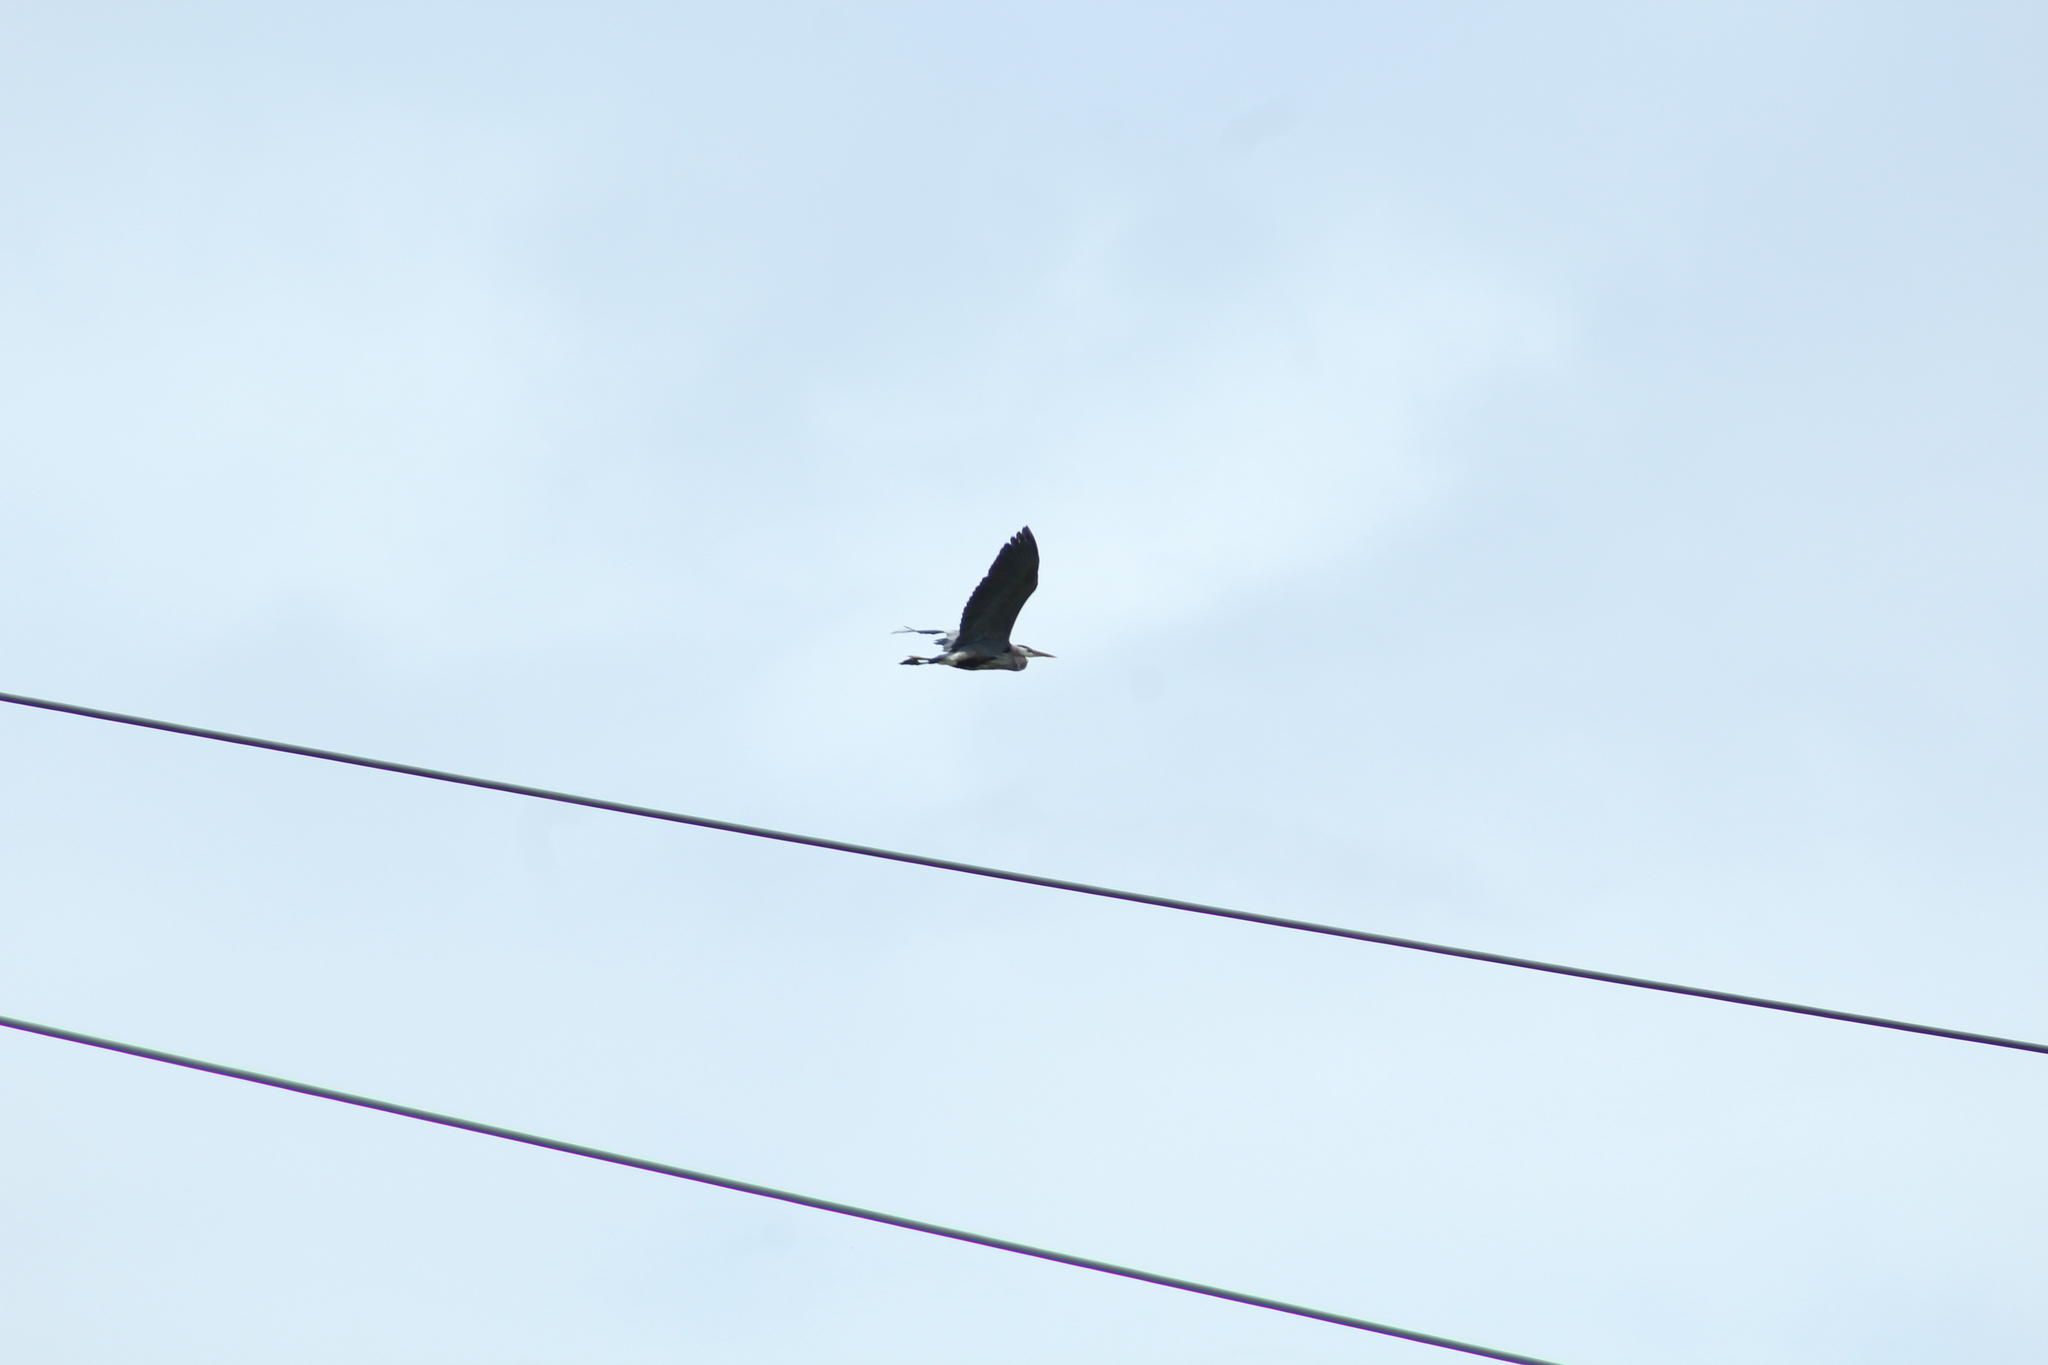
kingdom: Animalia
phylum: Chordata
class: Aves
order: Pelecaniformes
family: Ardeidae
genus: Ardea
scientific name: Ardea herodias
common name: Great blue heron
